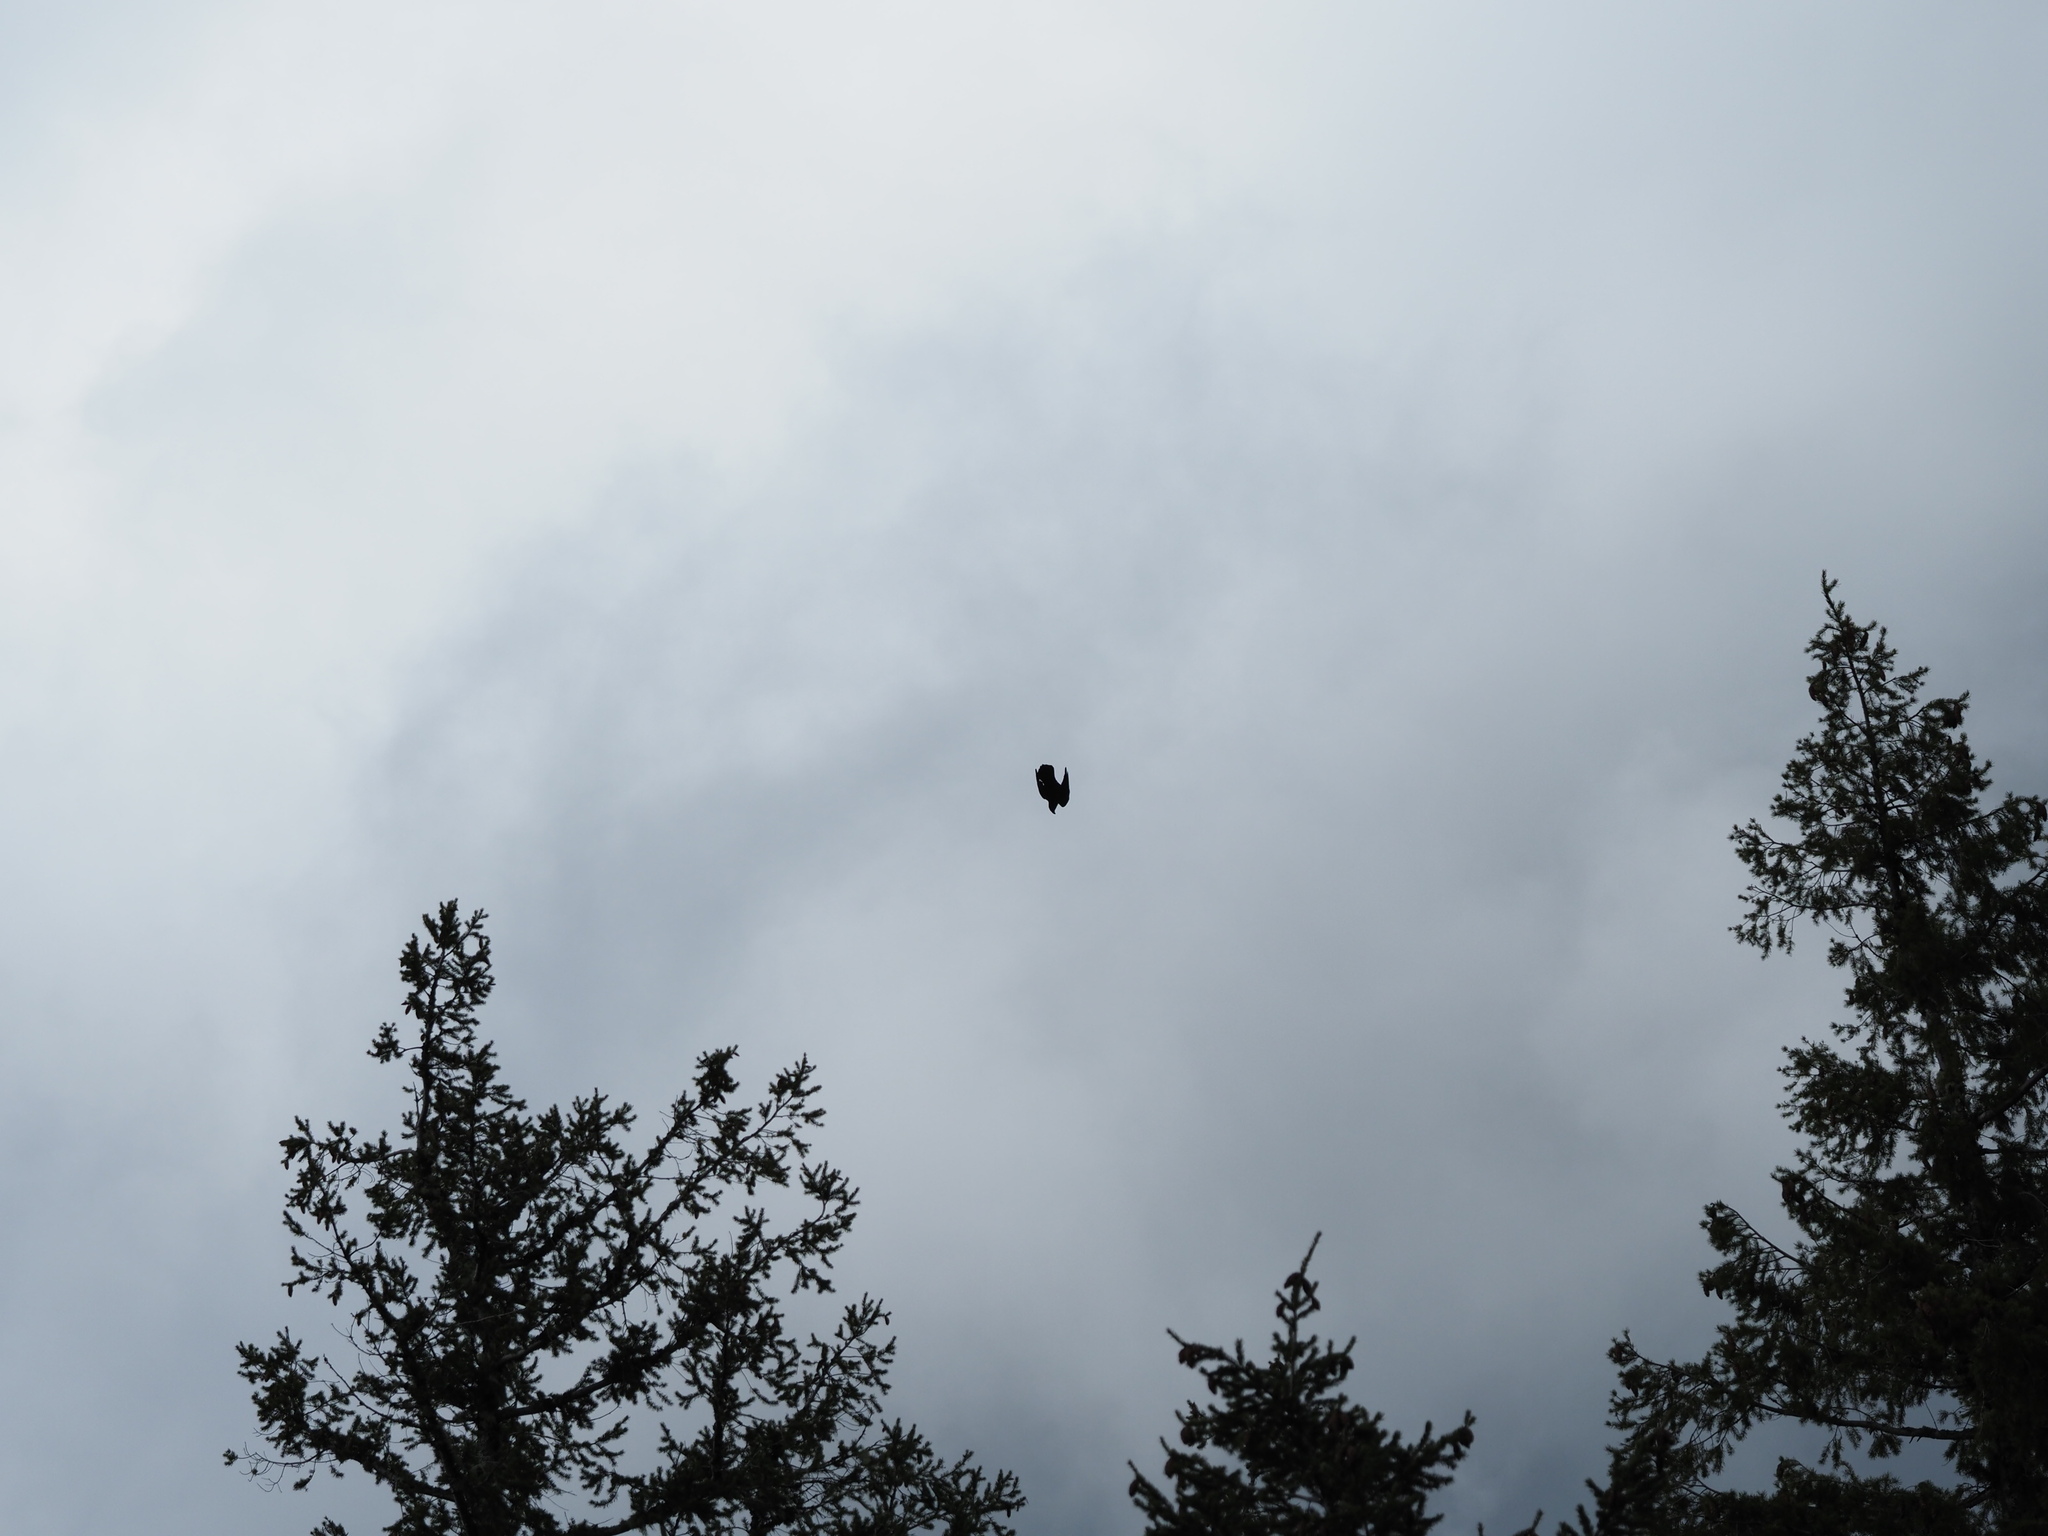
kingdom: Animalia
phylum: Chordata
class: Aves
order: Passeriformes
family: Corvidae
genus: Corvus
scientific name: Corvus corax
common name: Common raven
